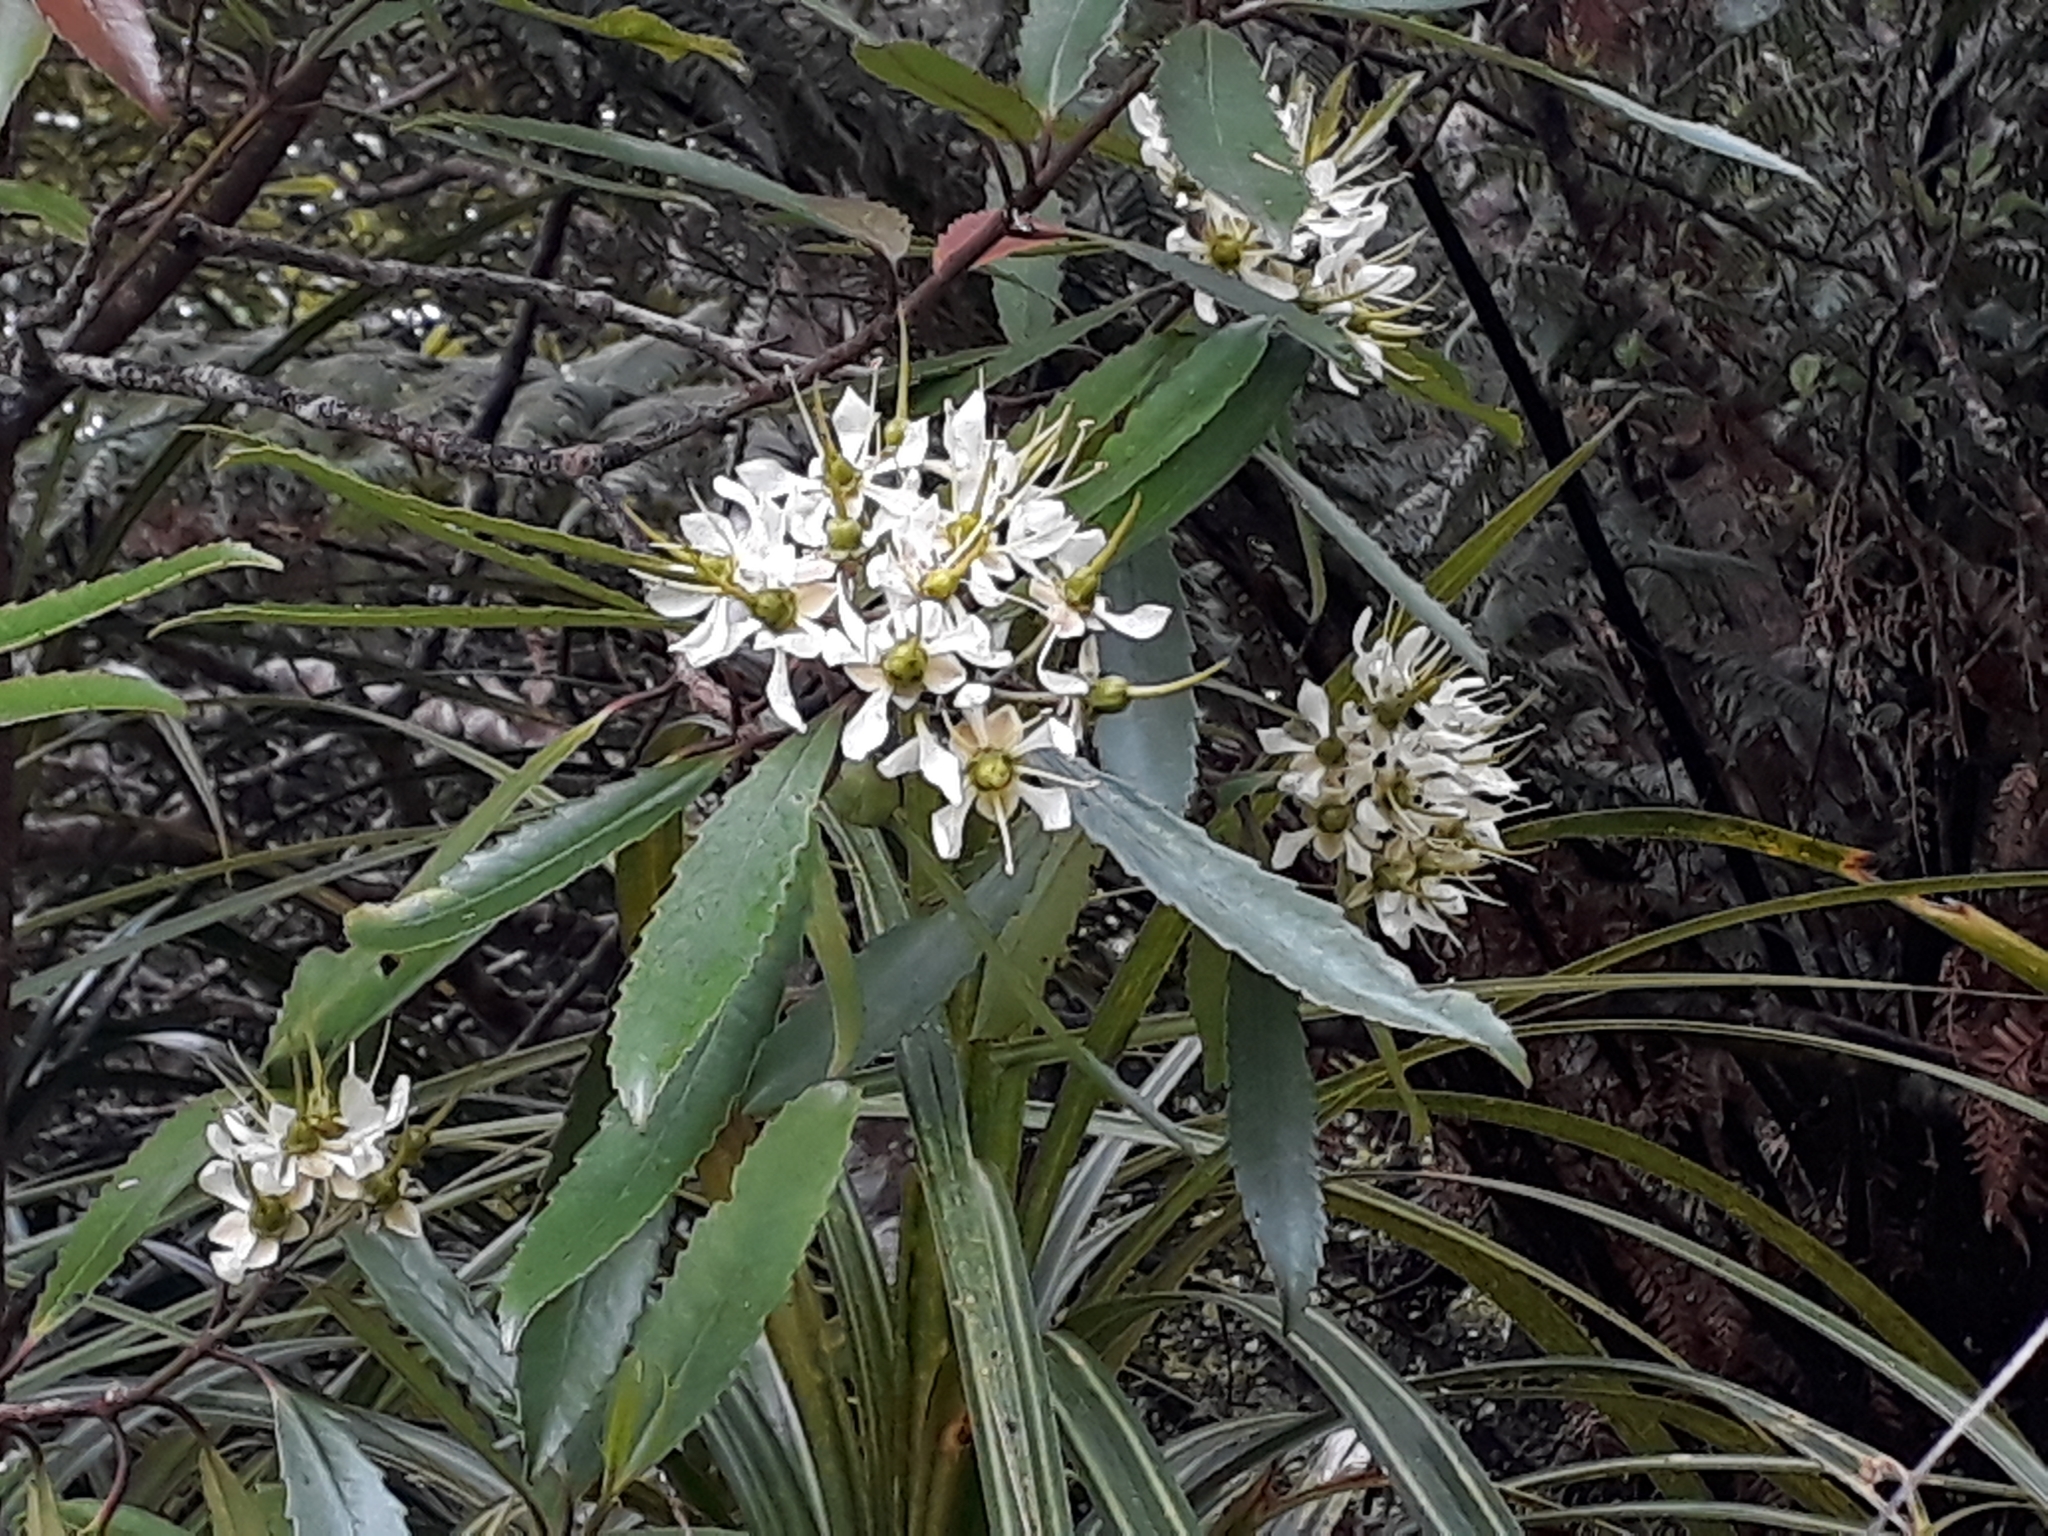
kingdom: Plantae
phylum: Tracheophyta
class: Magnoliopsida
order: Crossosomatales
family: Ixerbaceae
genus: Ixerba
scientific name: Ixerba brexioides
